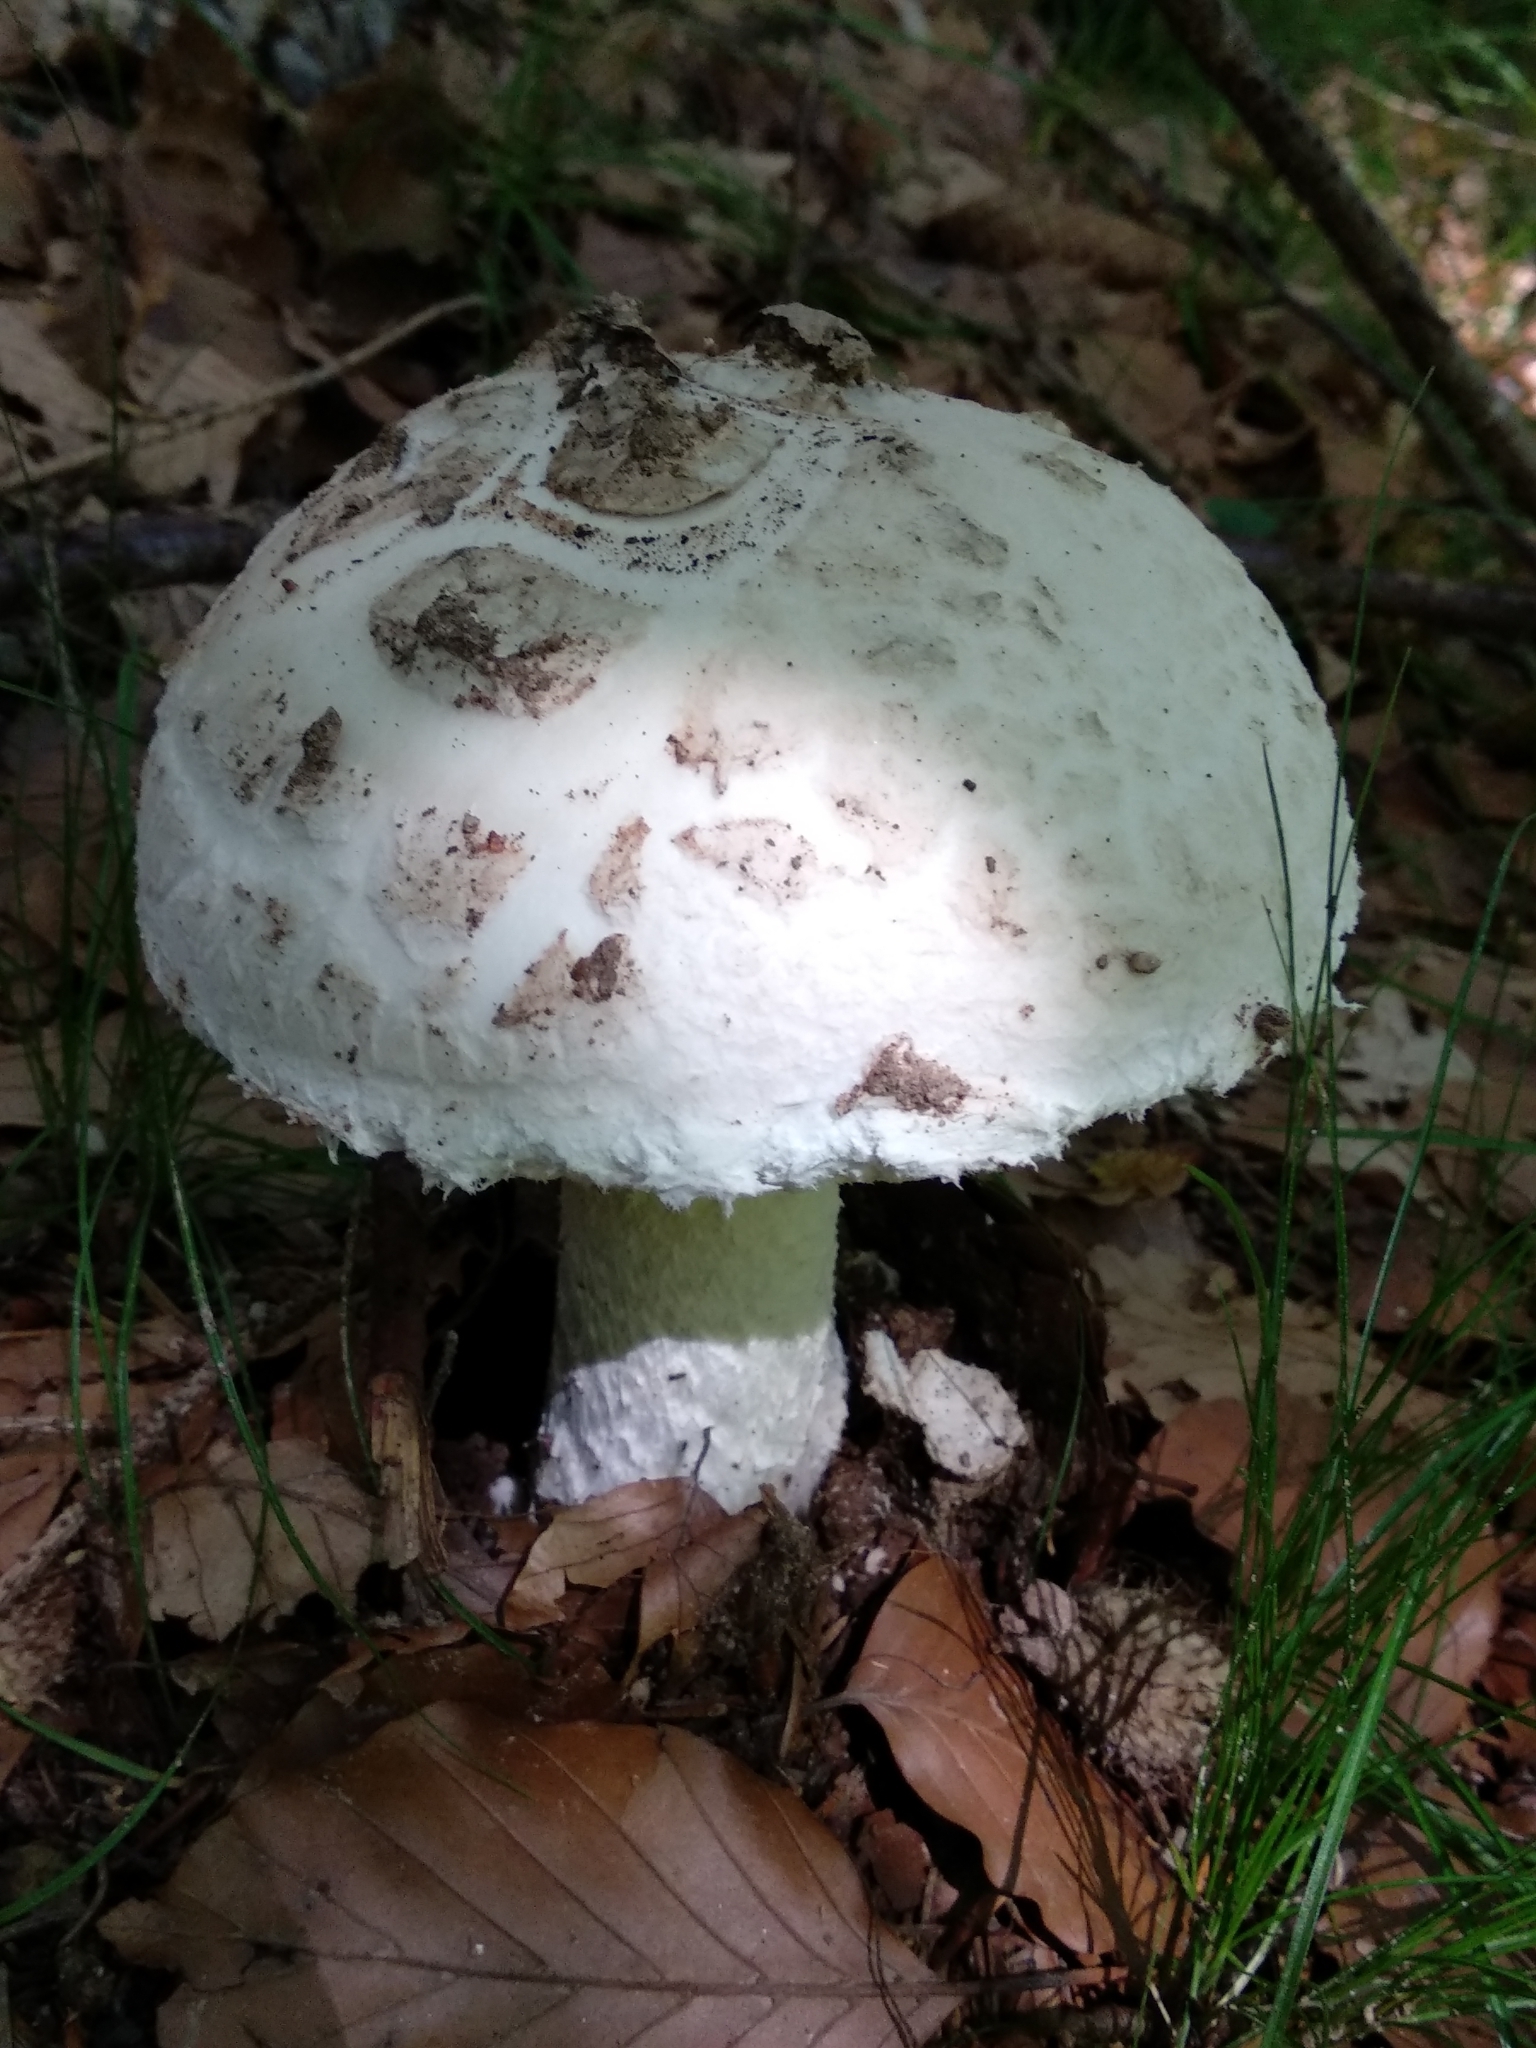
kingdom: Fungi
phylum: Basidiomycota
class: Agaricomycetes
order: Agaricales
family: Amanitaceae
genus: Amanita
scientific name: Amanita strobiliformis
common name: Warted amanita
